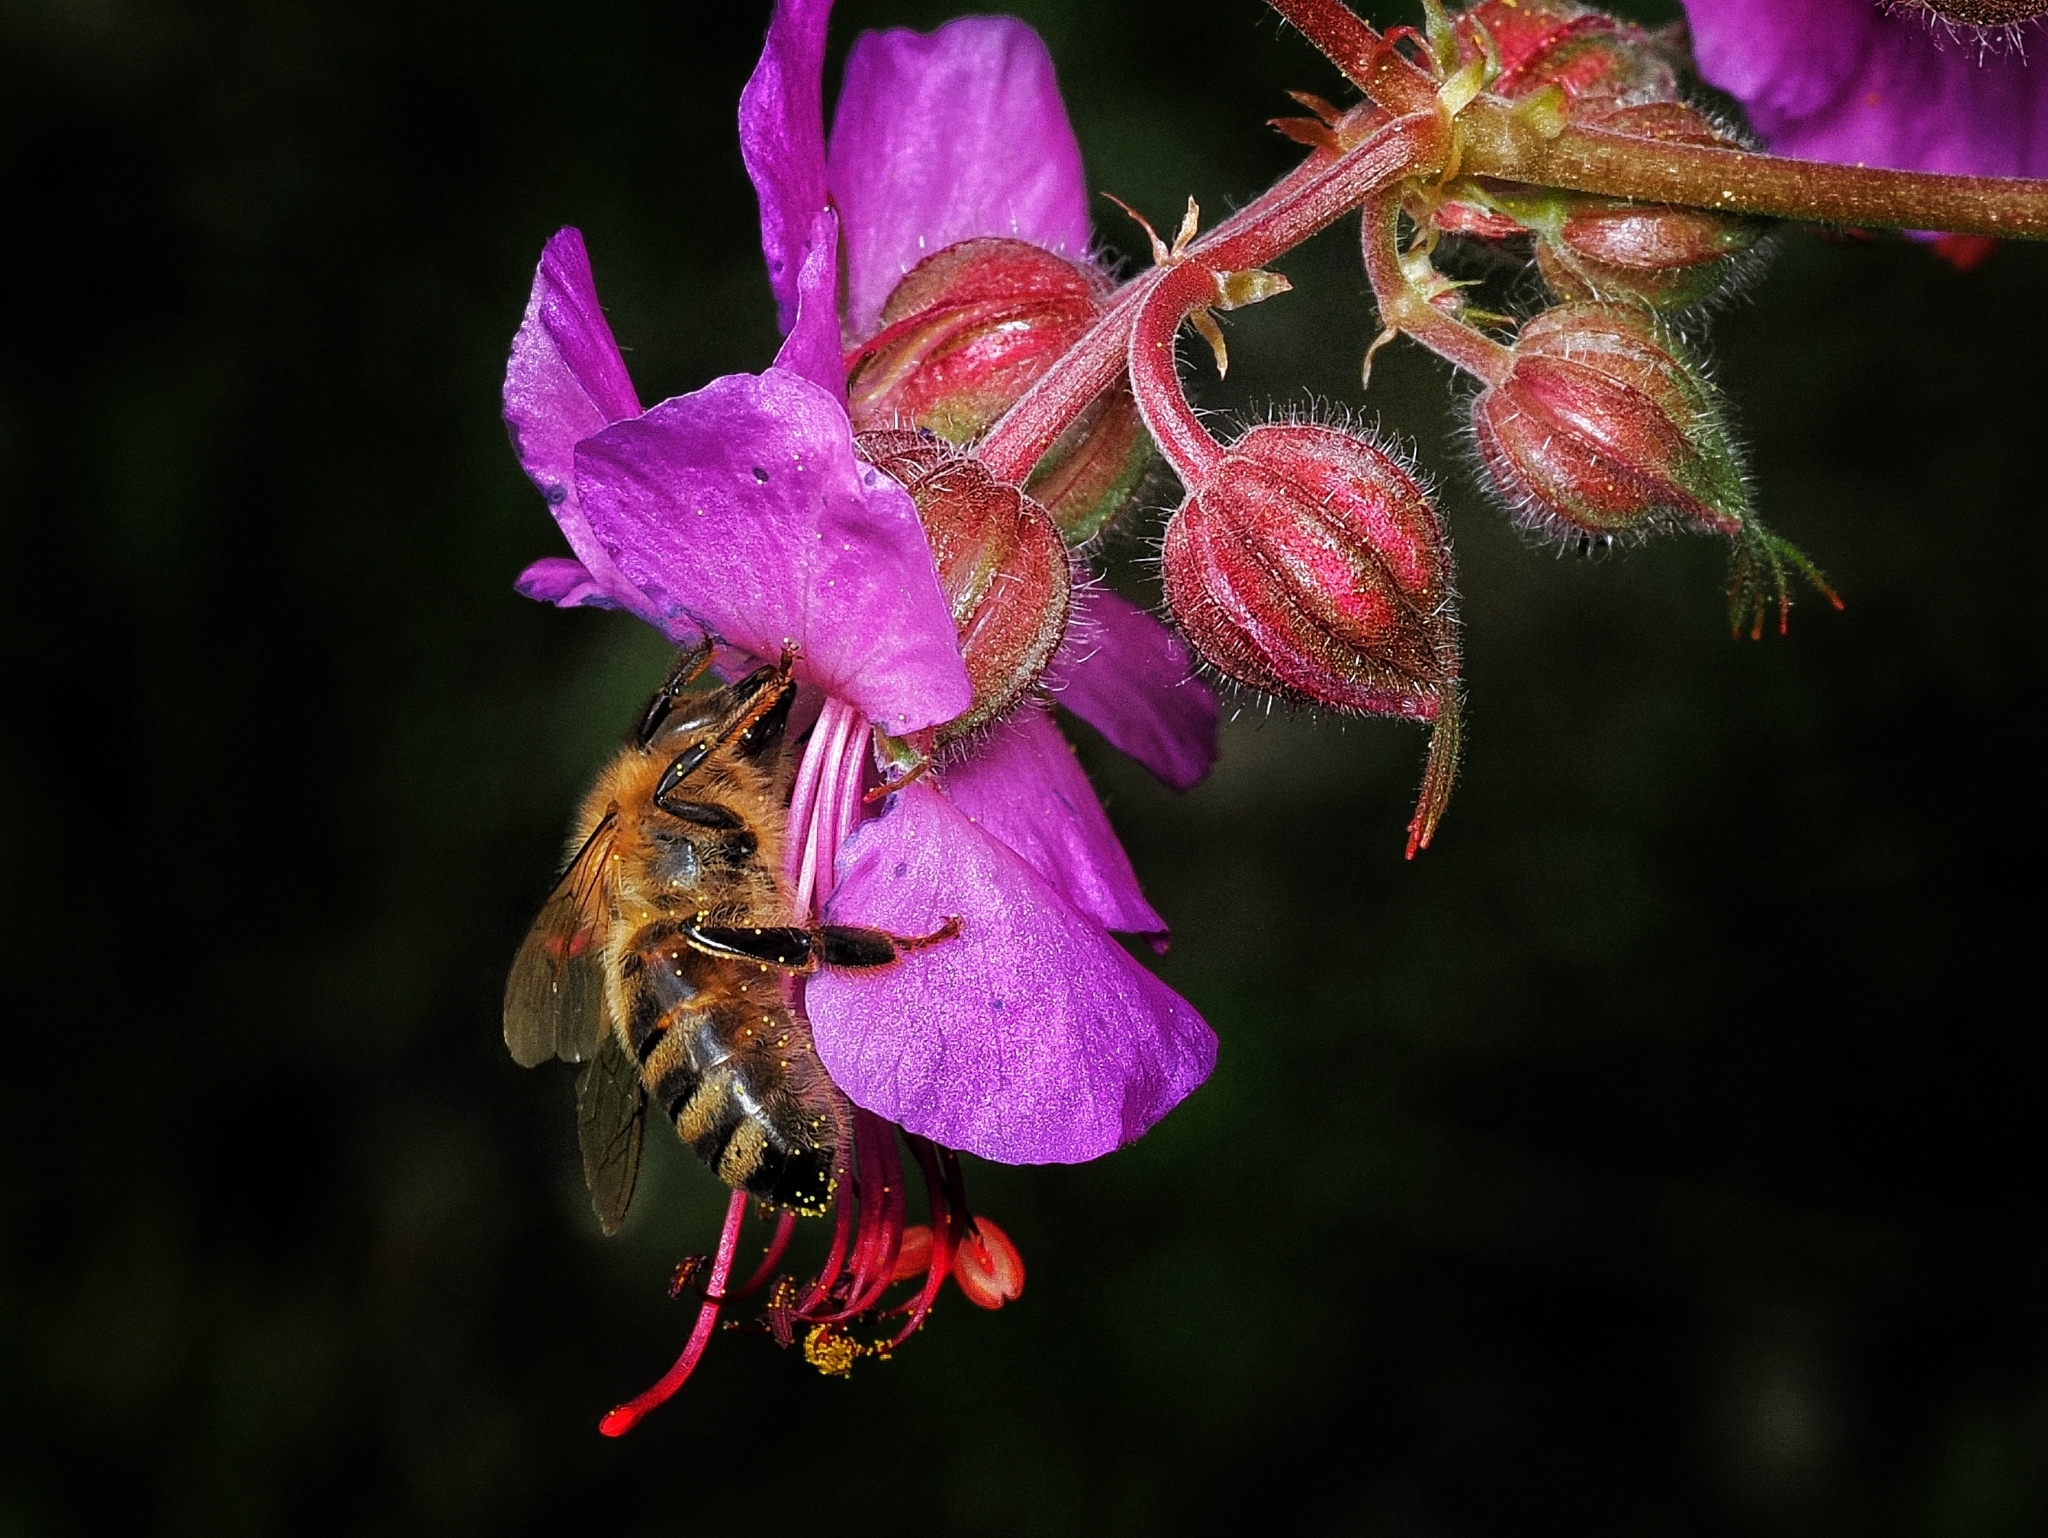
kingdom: Animalia
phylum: Arthropoda
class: Insecta
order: Hymenoptera
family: Apidae
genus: Apis
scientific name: Apis mellifera
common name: Honey bee
